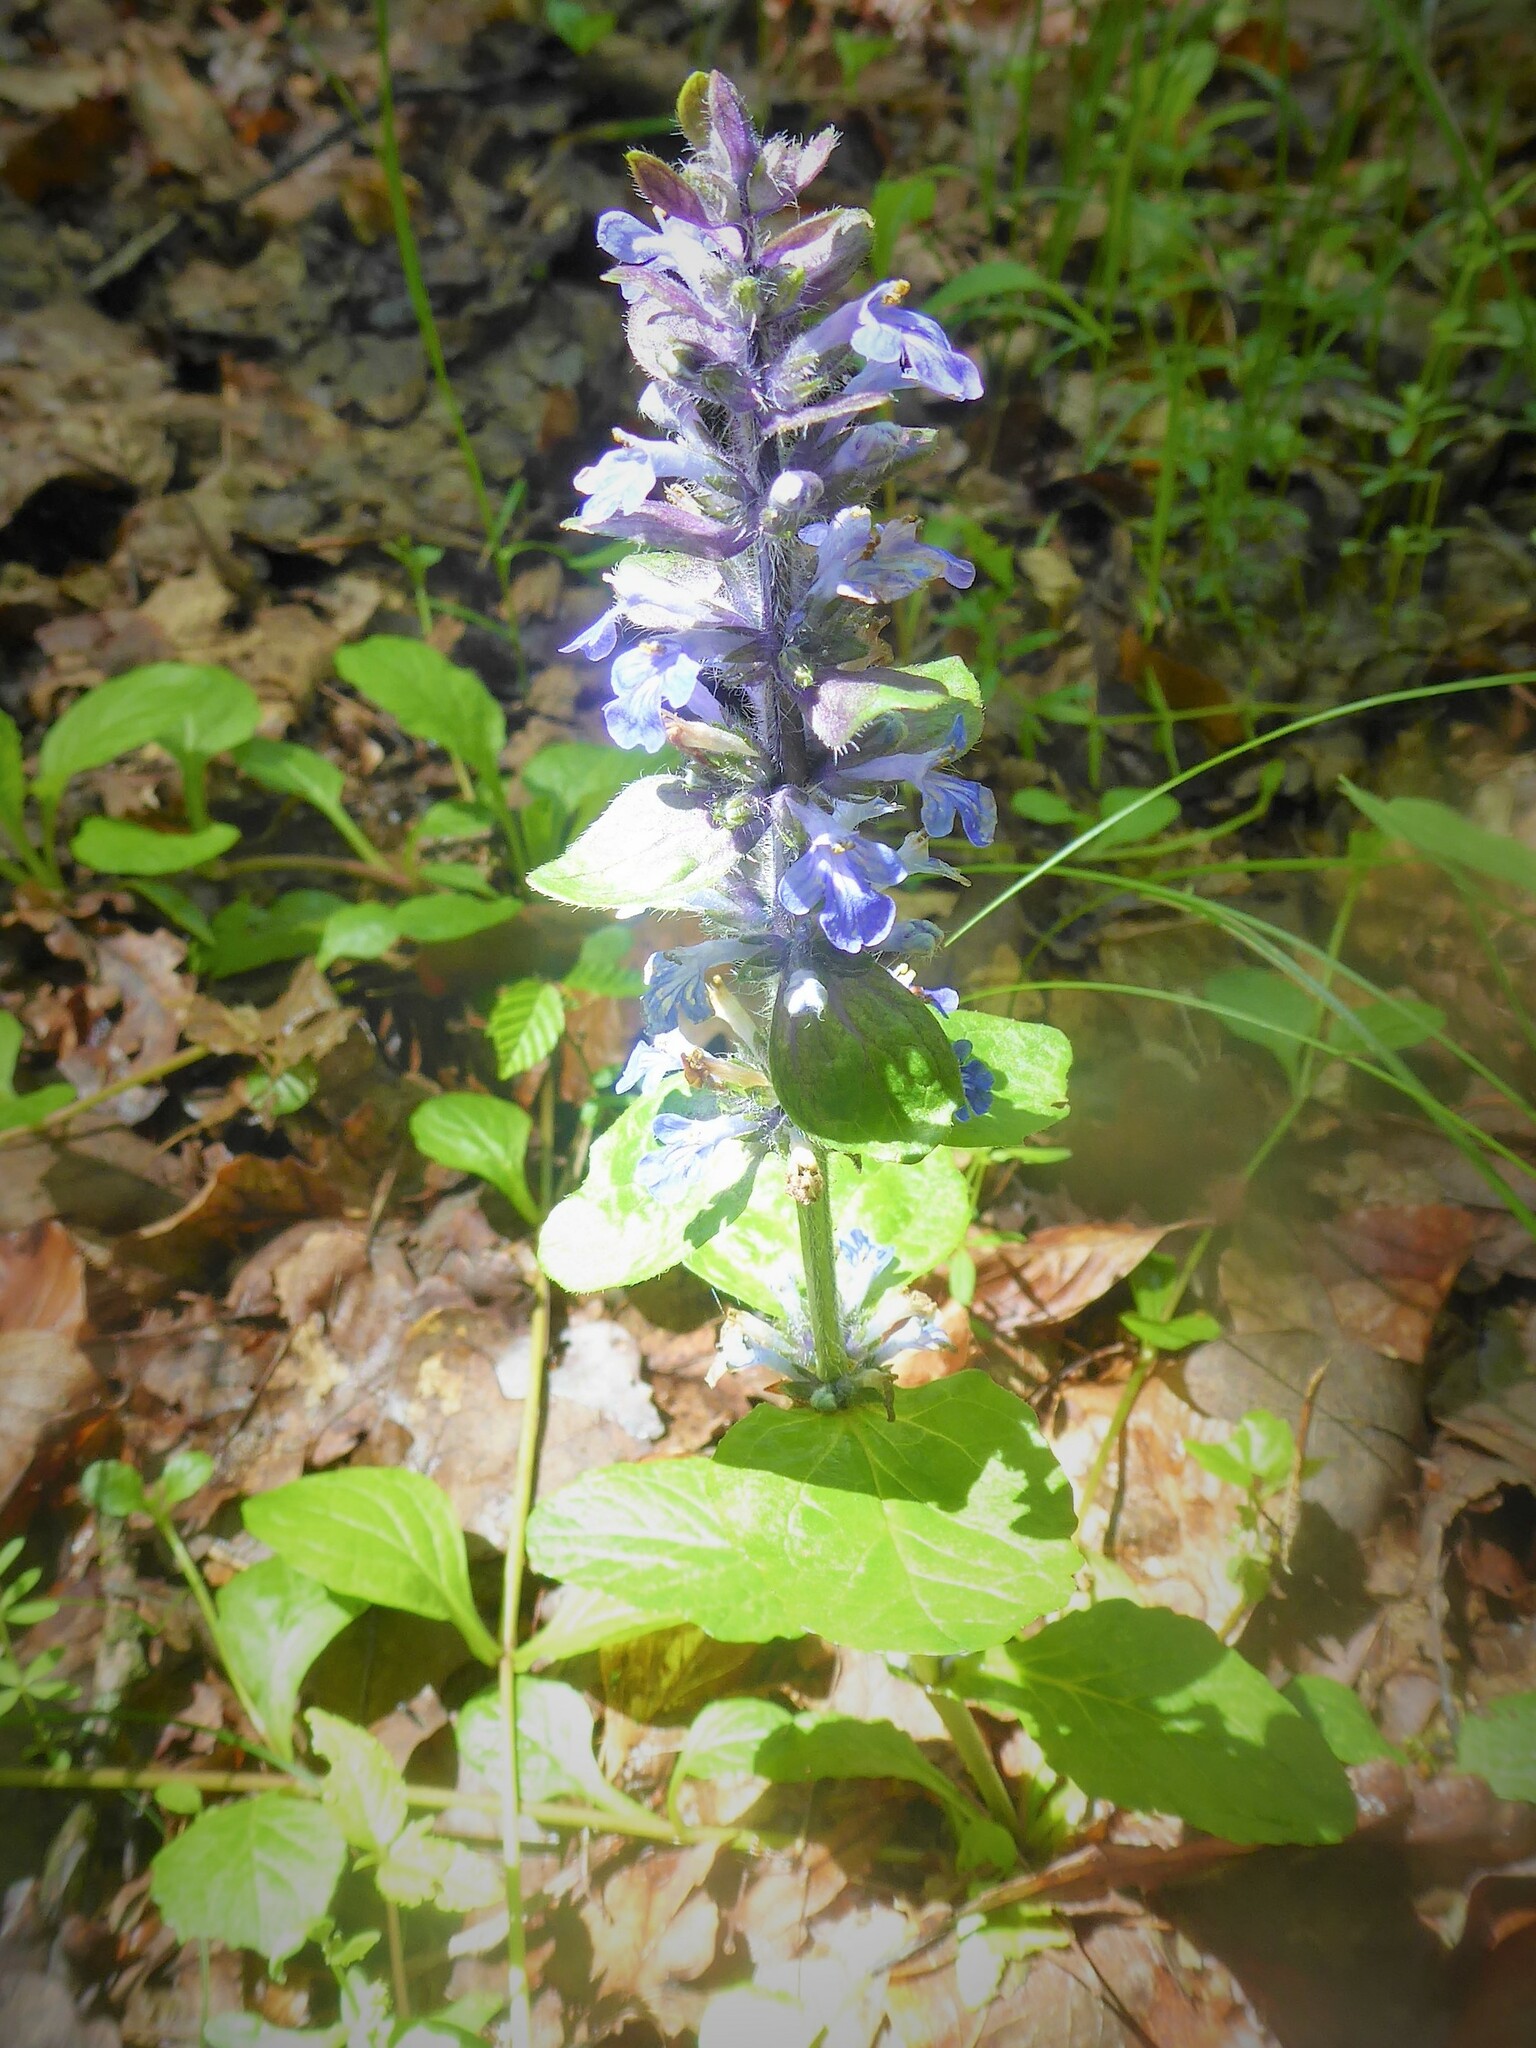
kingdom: Plantae
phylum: Tracheophyta
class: Magnoliopsida
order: Lamiales
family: Lamiaceae
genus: Ajuga
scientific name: Ajuga reptans
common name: Bugle
